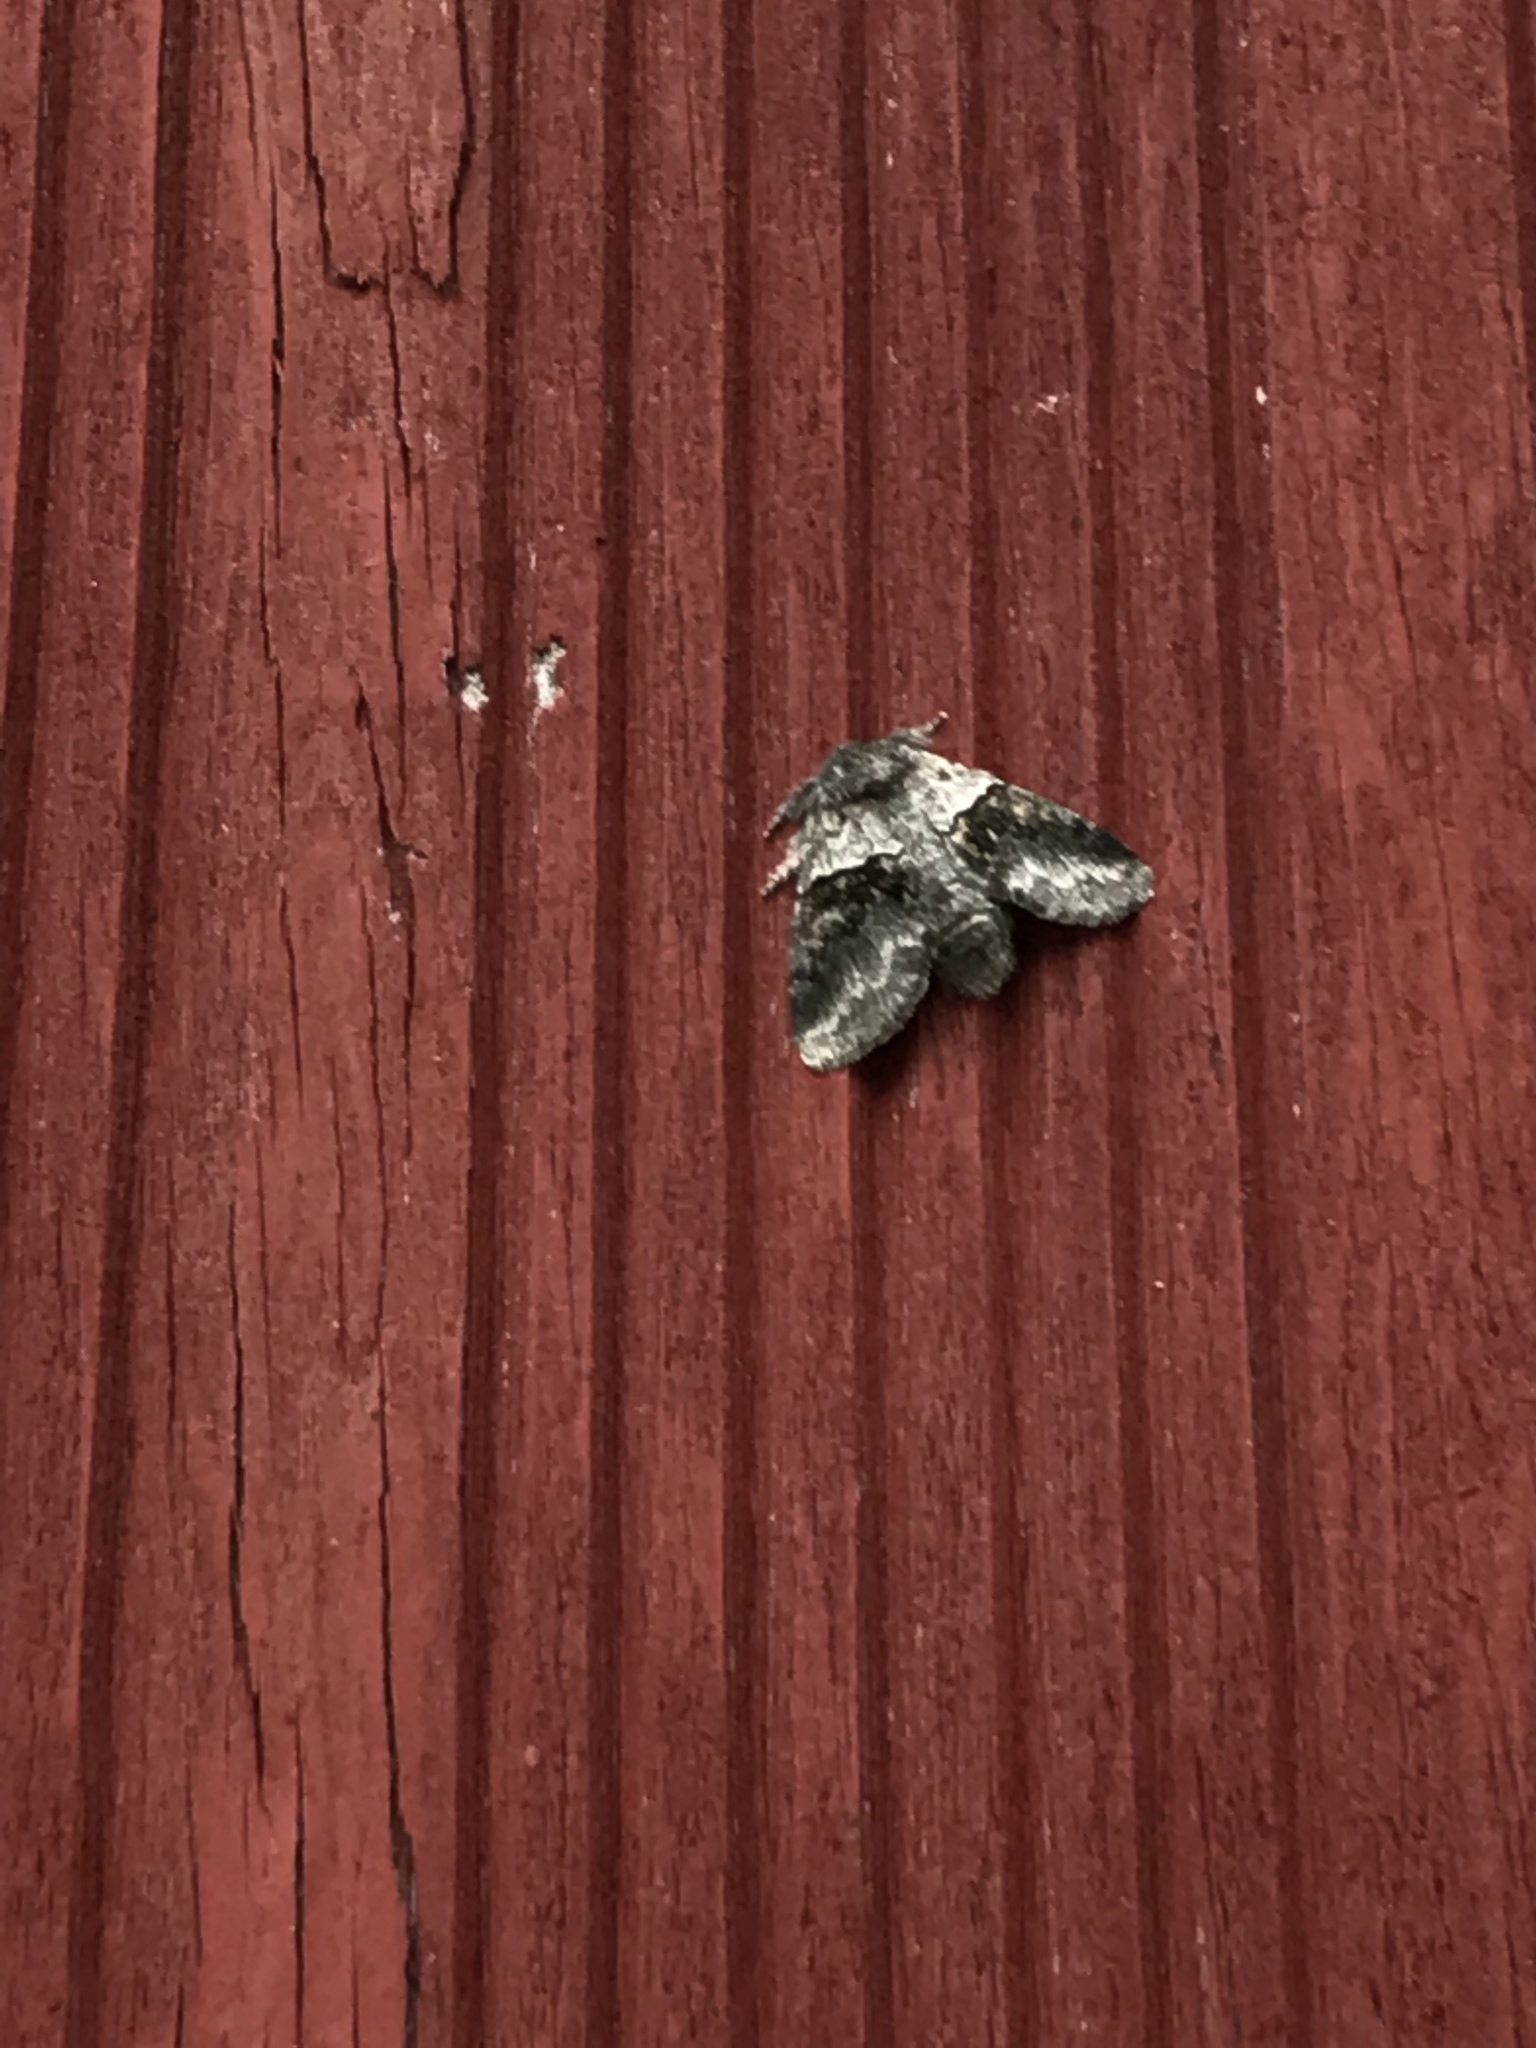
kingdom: Animalia
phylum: Arthropoda
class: Insecta
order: Lepidoptera
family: Notodontidae
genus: Gluphisia
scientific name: Gluphisia septentrionis
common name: Common gluphisia
